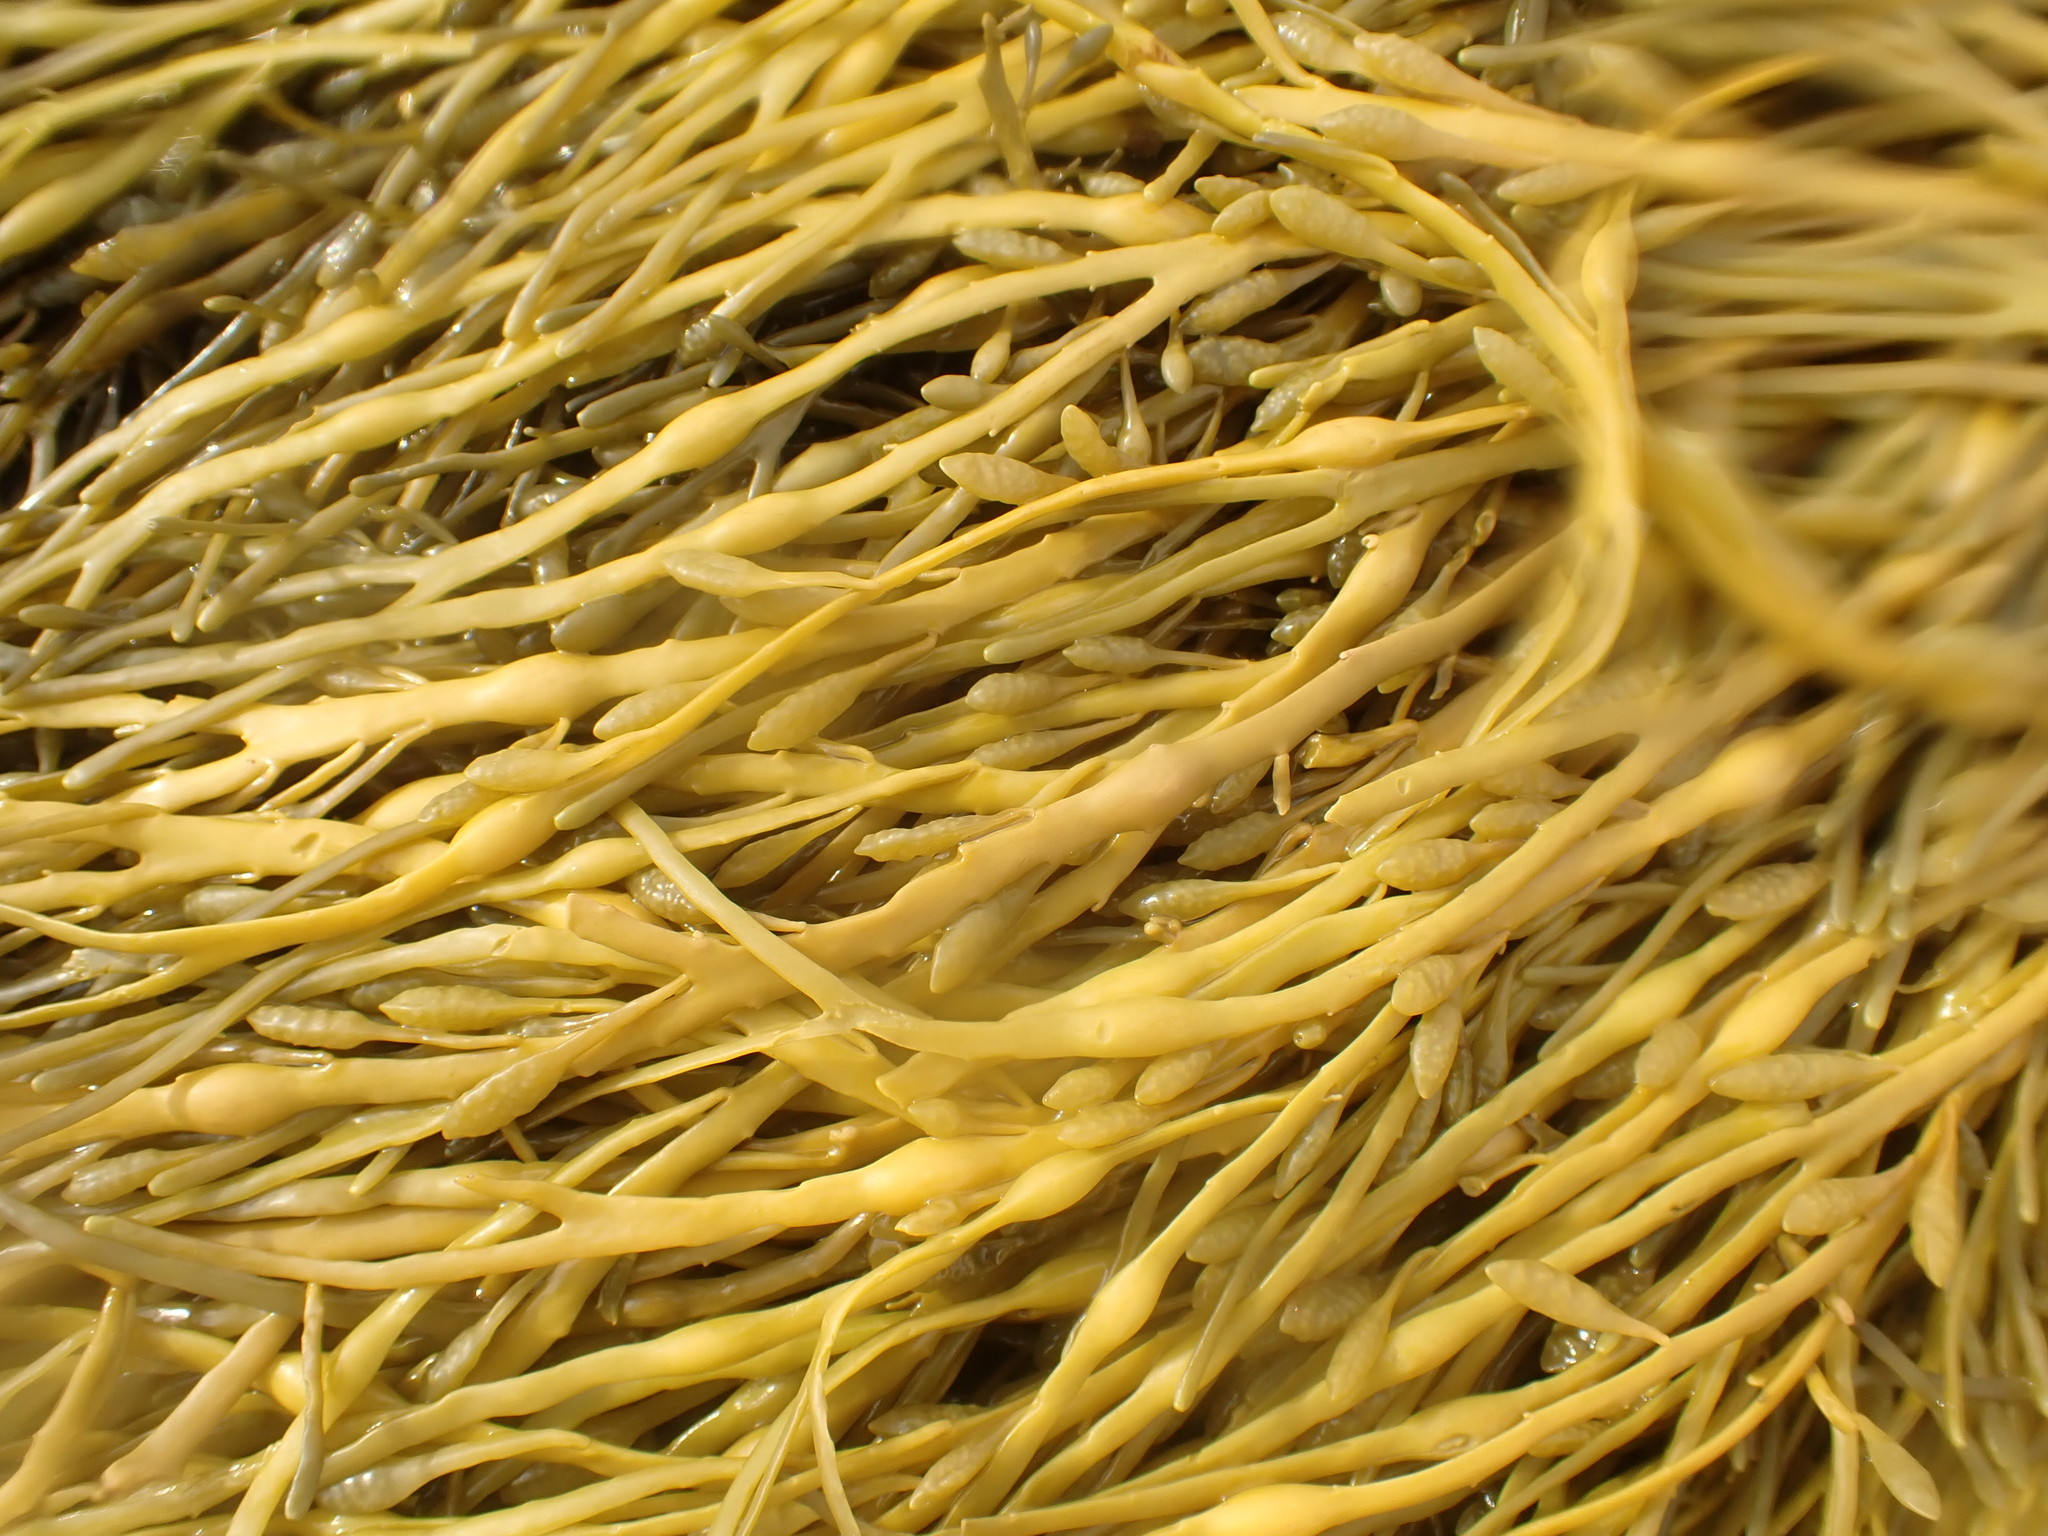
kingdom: Chromista
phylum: Ochrophyta
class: Phaeophyceae
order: Fucales
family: Fucaceae
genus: Ascophyllum
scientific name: Ascophyllum nodosum
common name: Knotted wrack
